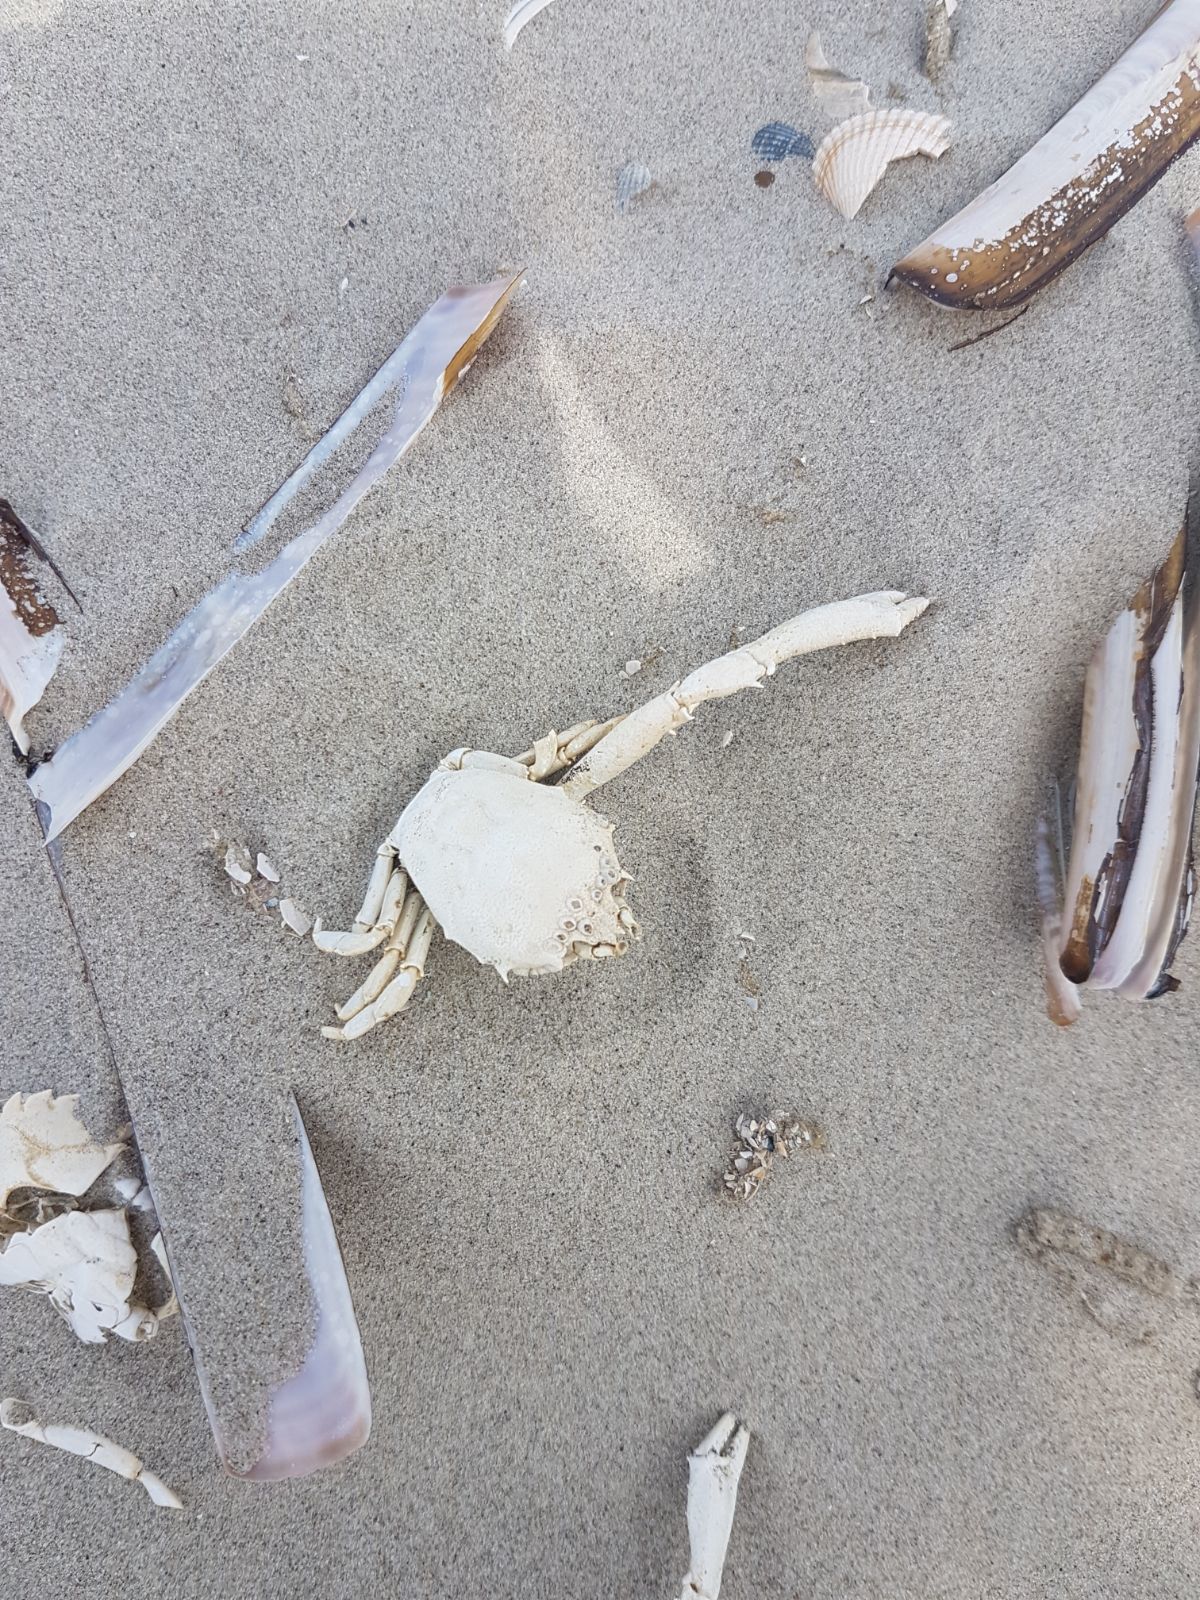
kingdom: Animalia
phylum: Arthropoda
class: Malacostraca
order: Decapoda
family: Corystidae
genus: Corystes
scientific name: Corystes cassivelaunus
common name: Masked crab
